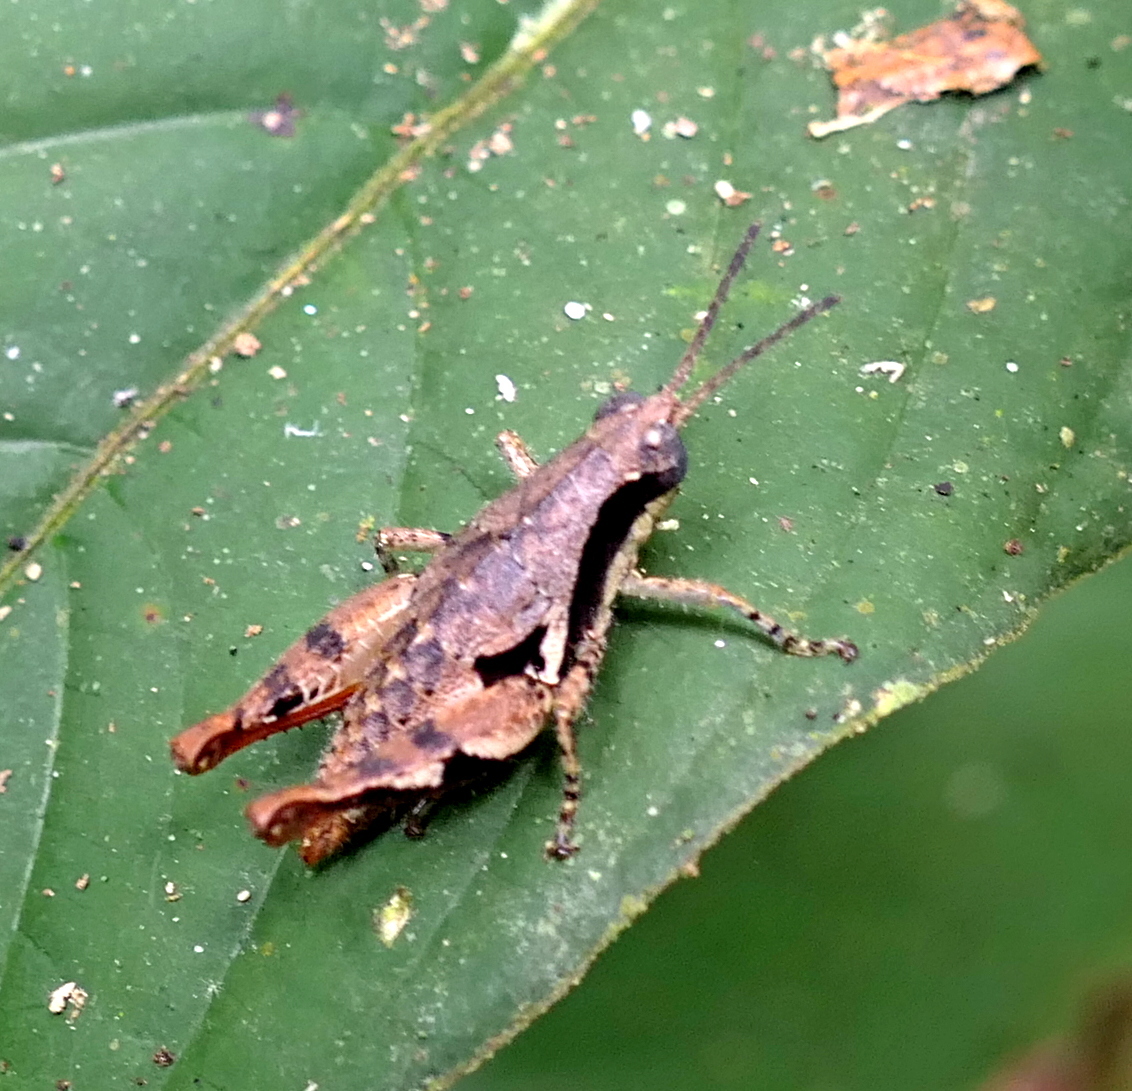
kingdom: Animalia
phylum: Arthropoda
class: Insecta
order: Orthoptera
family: Acrididae
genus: Eujivarus
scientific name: Eujivarus meridionalis
